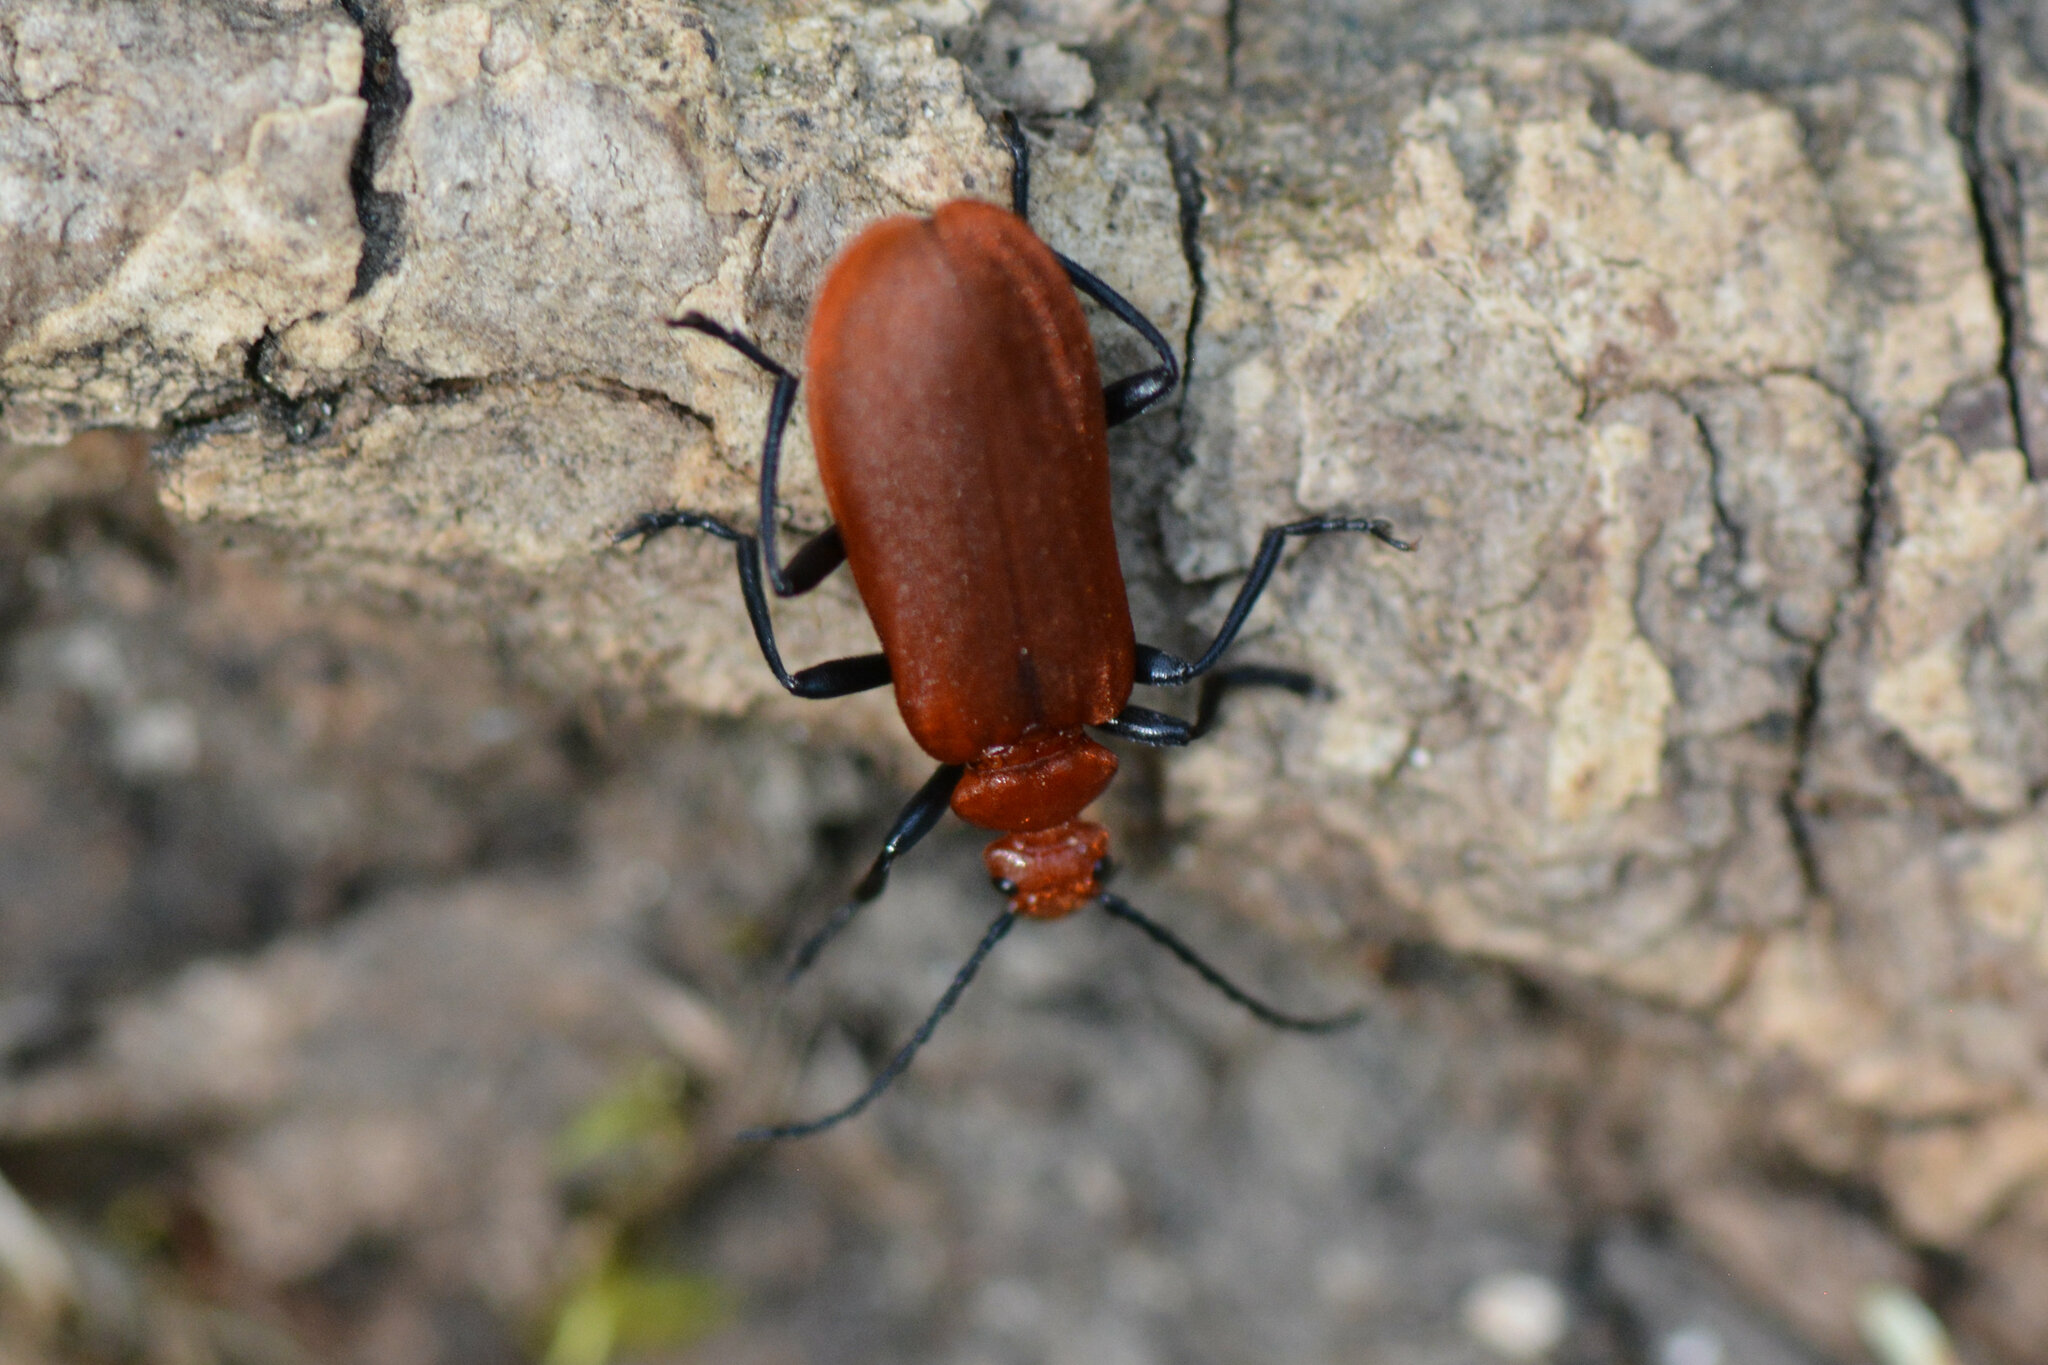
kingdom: Animalia
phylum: Arthropoda
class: Insecta
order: Coleoptera
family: Pyrochroidae
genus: Pyrochroa
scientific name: Pyrochroa serraticornis
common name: Red-headed cardinal beetle
